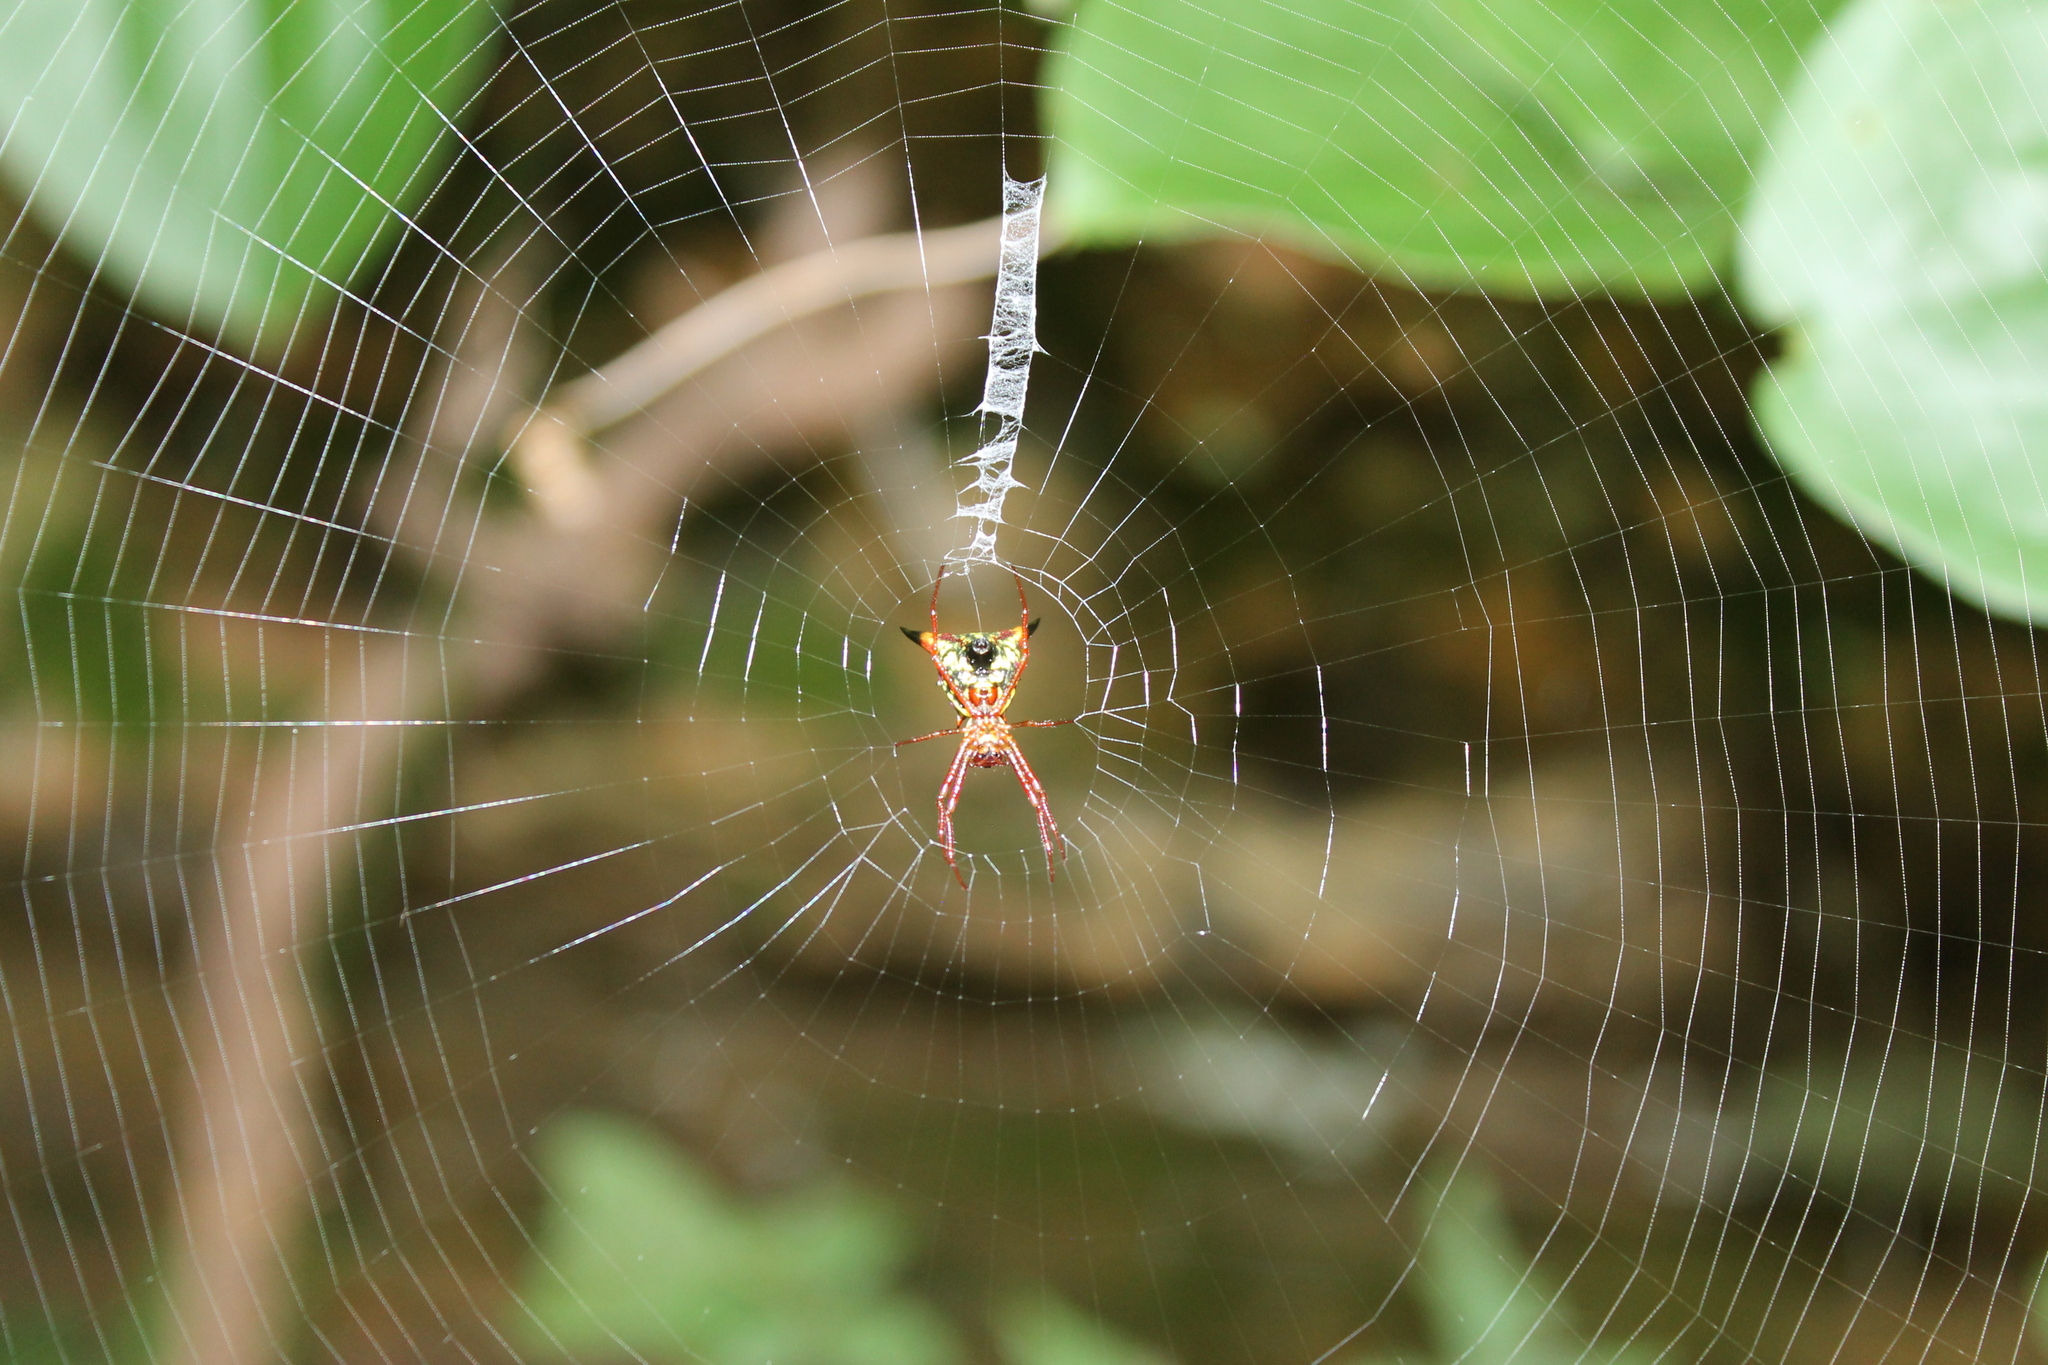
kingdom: Animalia
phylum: Arthropoda
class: Arachnida
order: Araneae
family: Araneidae
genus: Micrathena
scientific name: Micrathena sagittata
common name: Orb weavers
